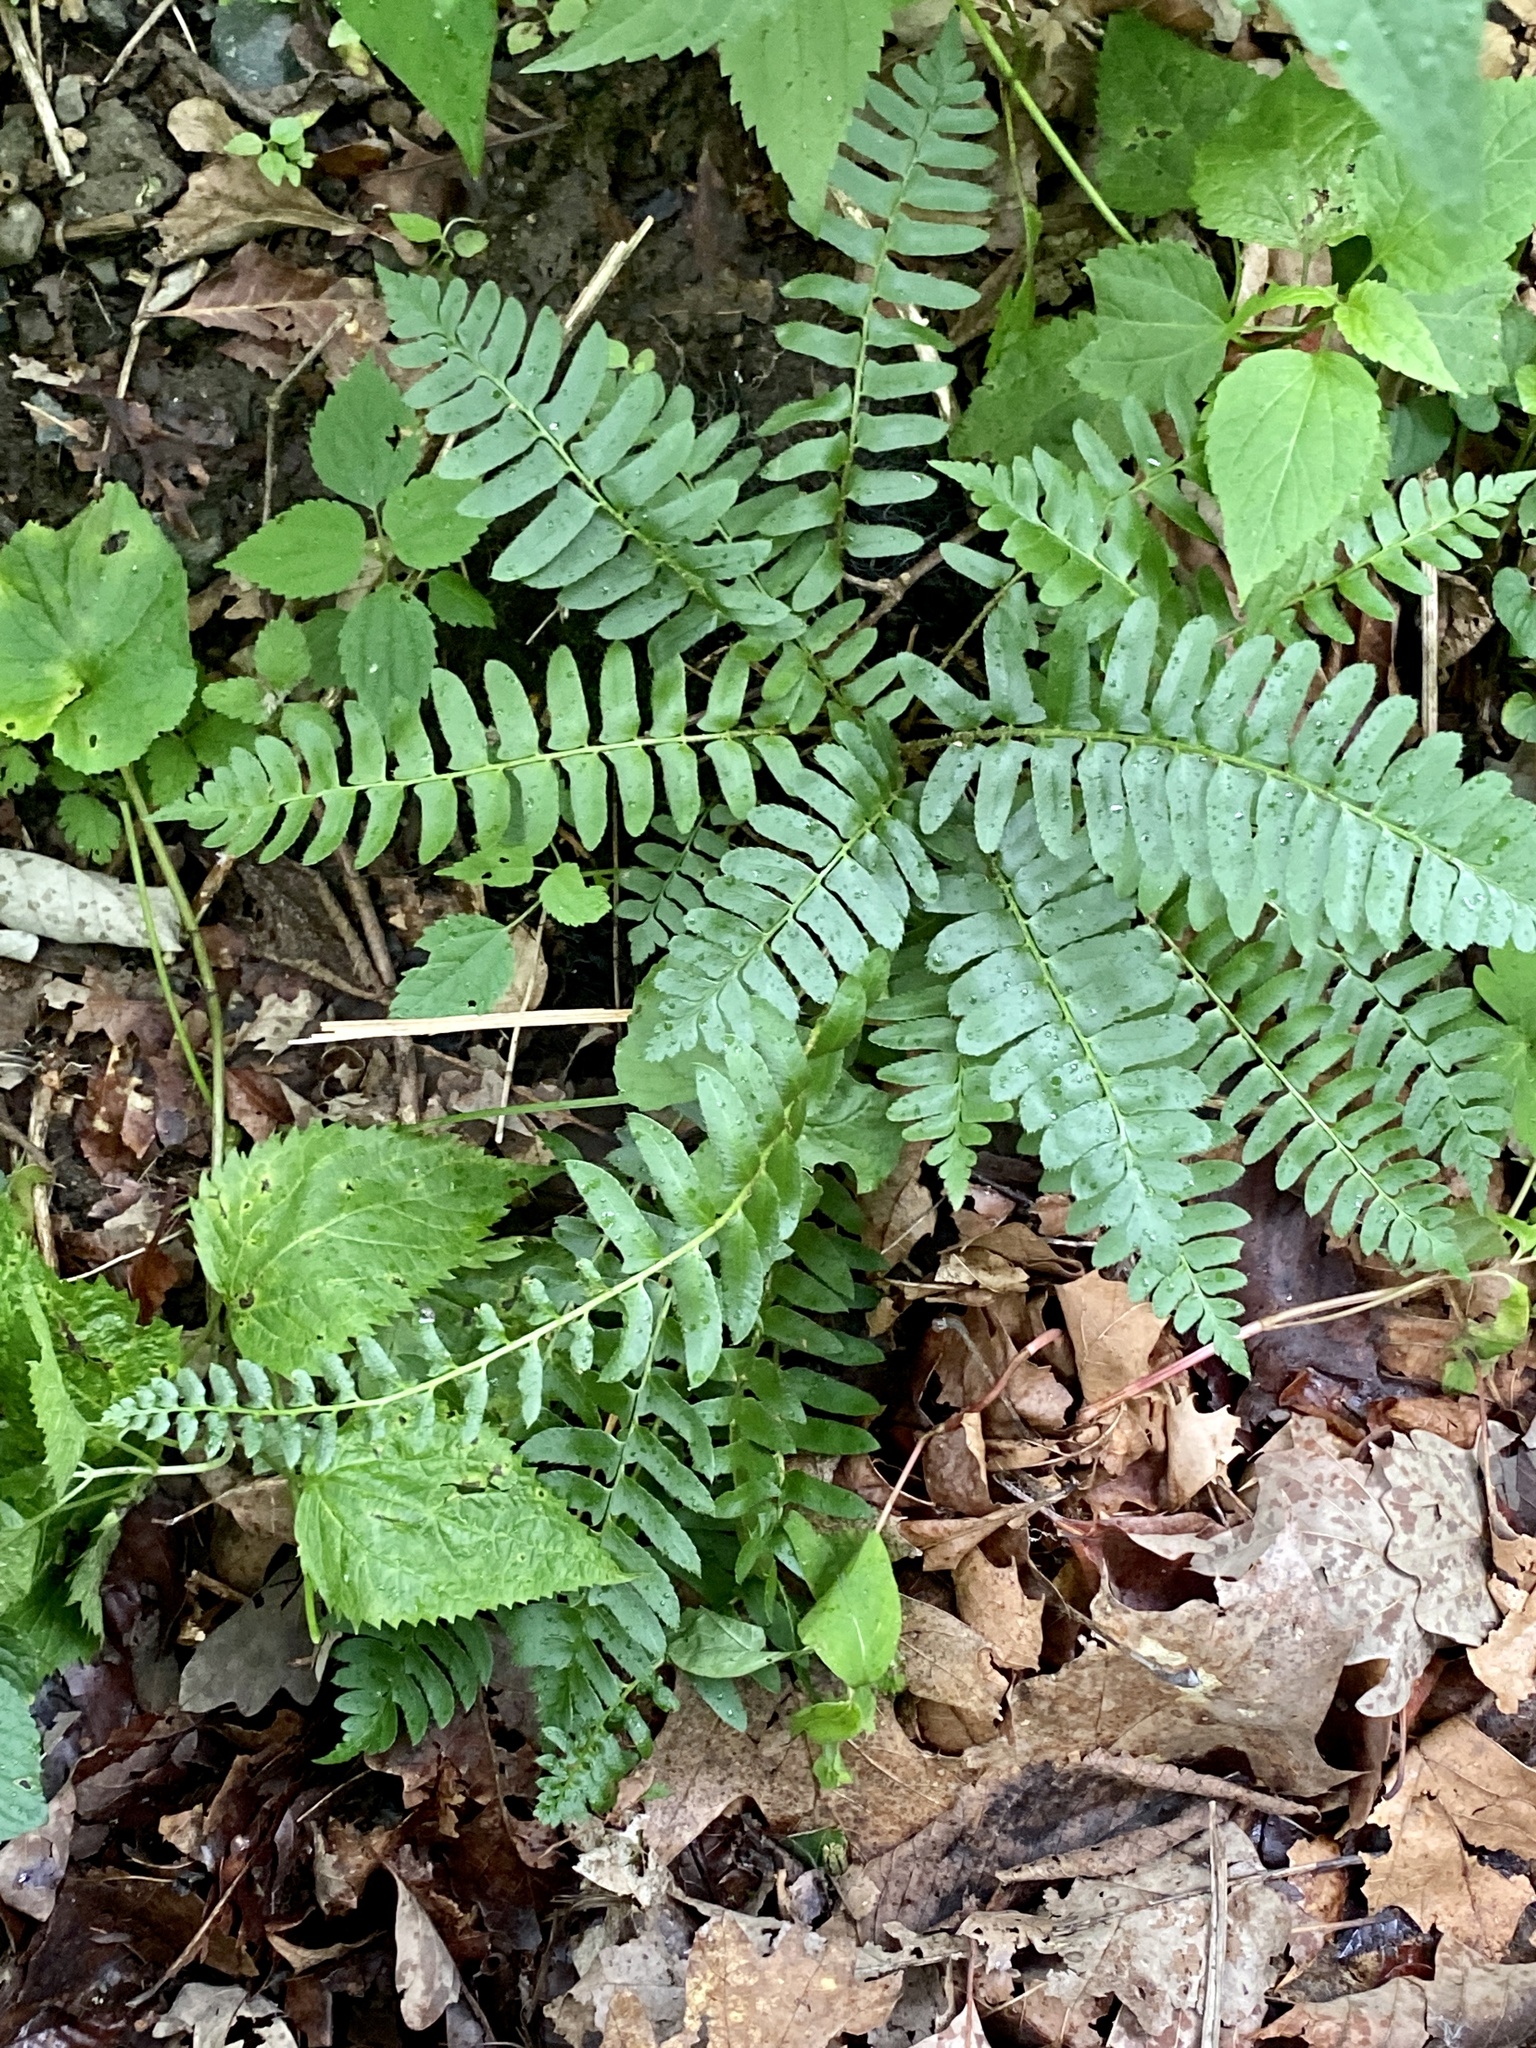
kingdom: Plantae
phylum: Tracheophyta
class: Polypodiopsida
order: Polypodiales
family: Dryopteridaceae
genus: Polystichum
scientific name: Polystichum acrostichoides
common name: Christmas fern
